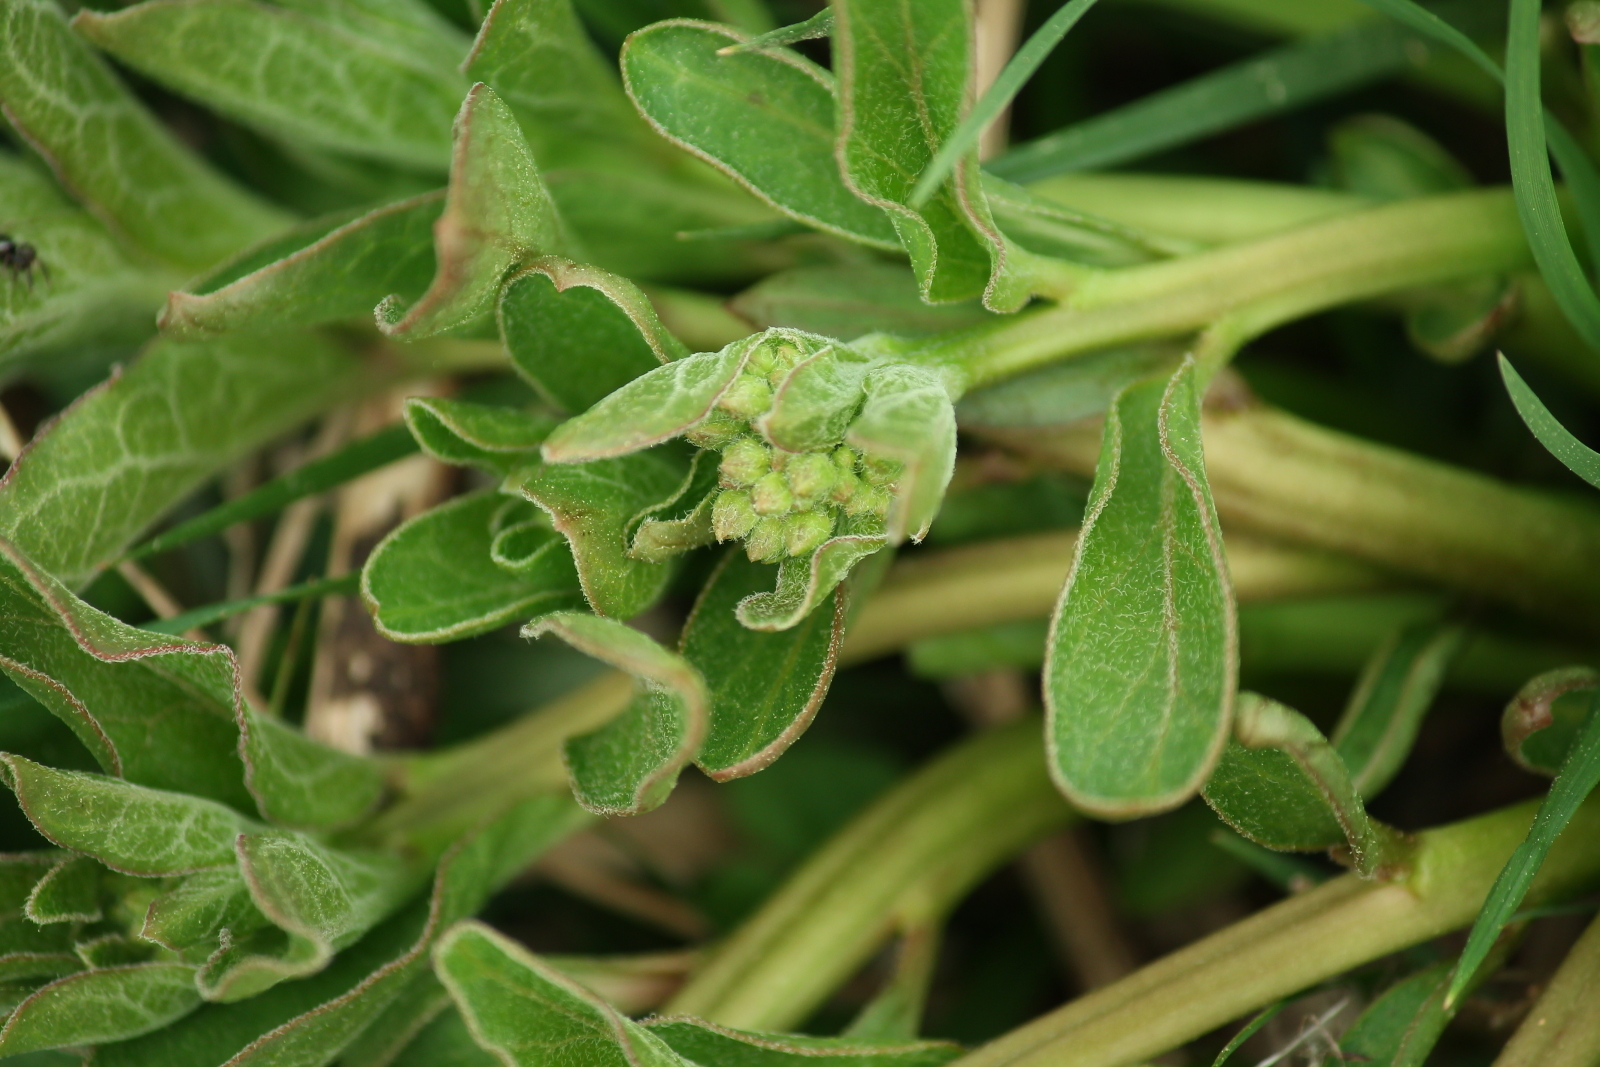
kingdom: Plantae
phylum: Tracheophyta
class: Magnoliopsida
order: Gentianales
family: Apocynaceae
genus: Asclepias
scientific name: Asclepias viridis
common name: Antelope-horns
